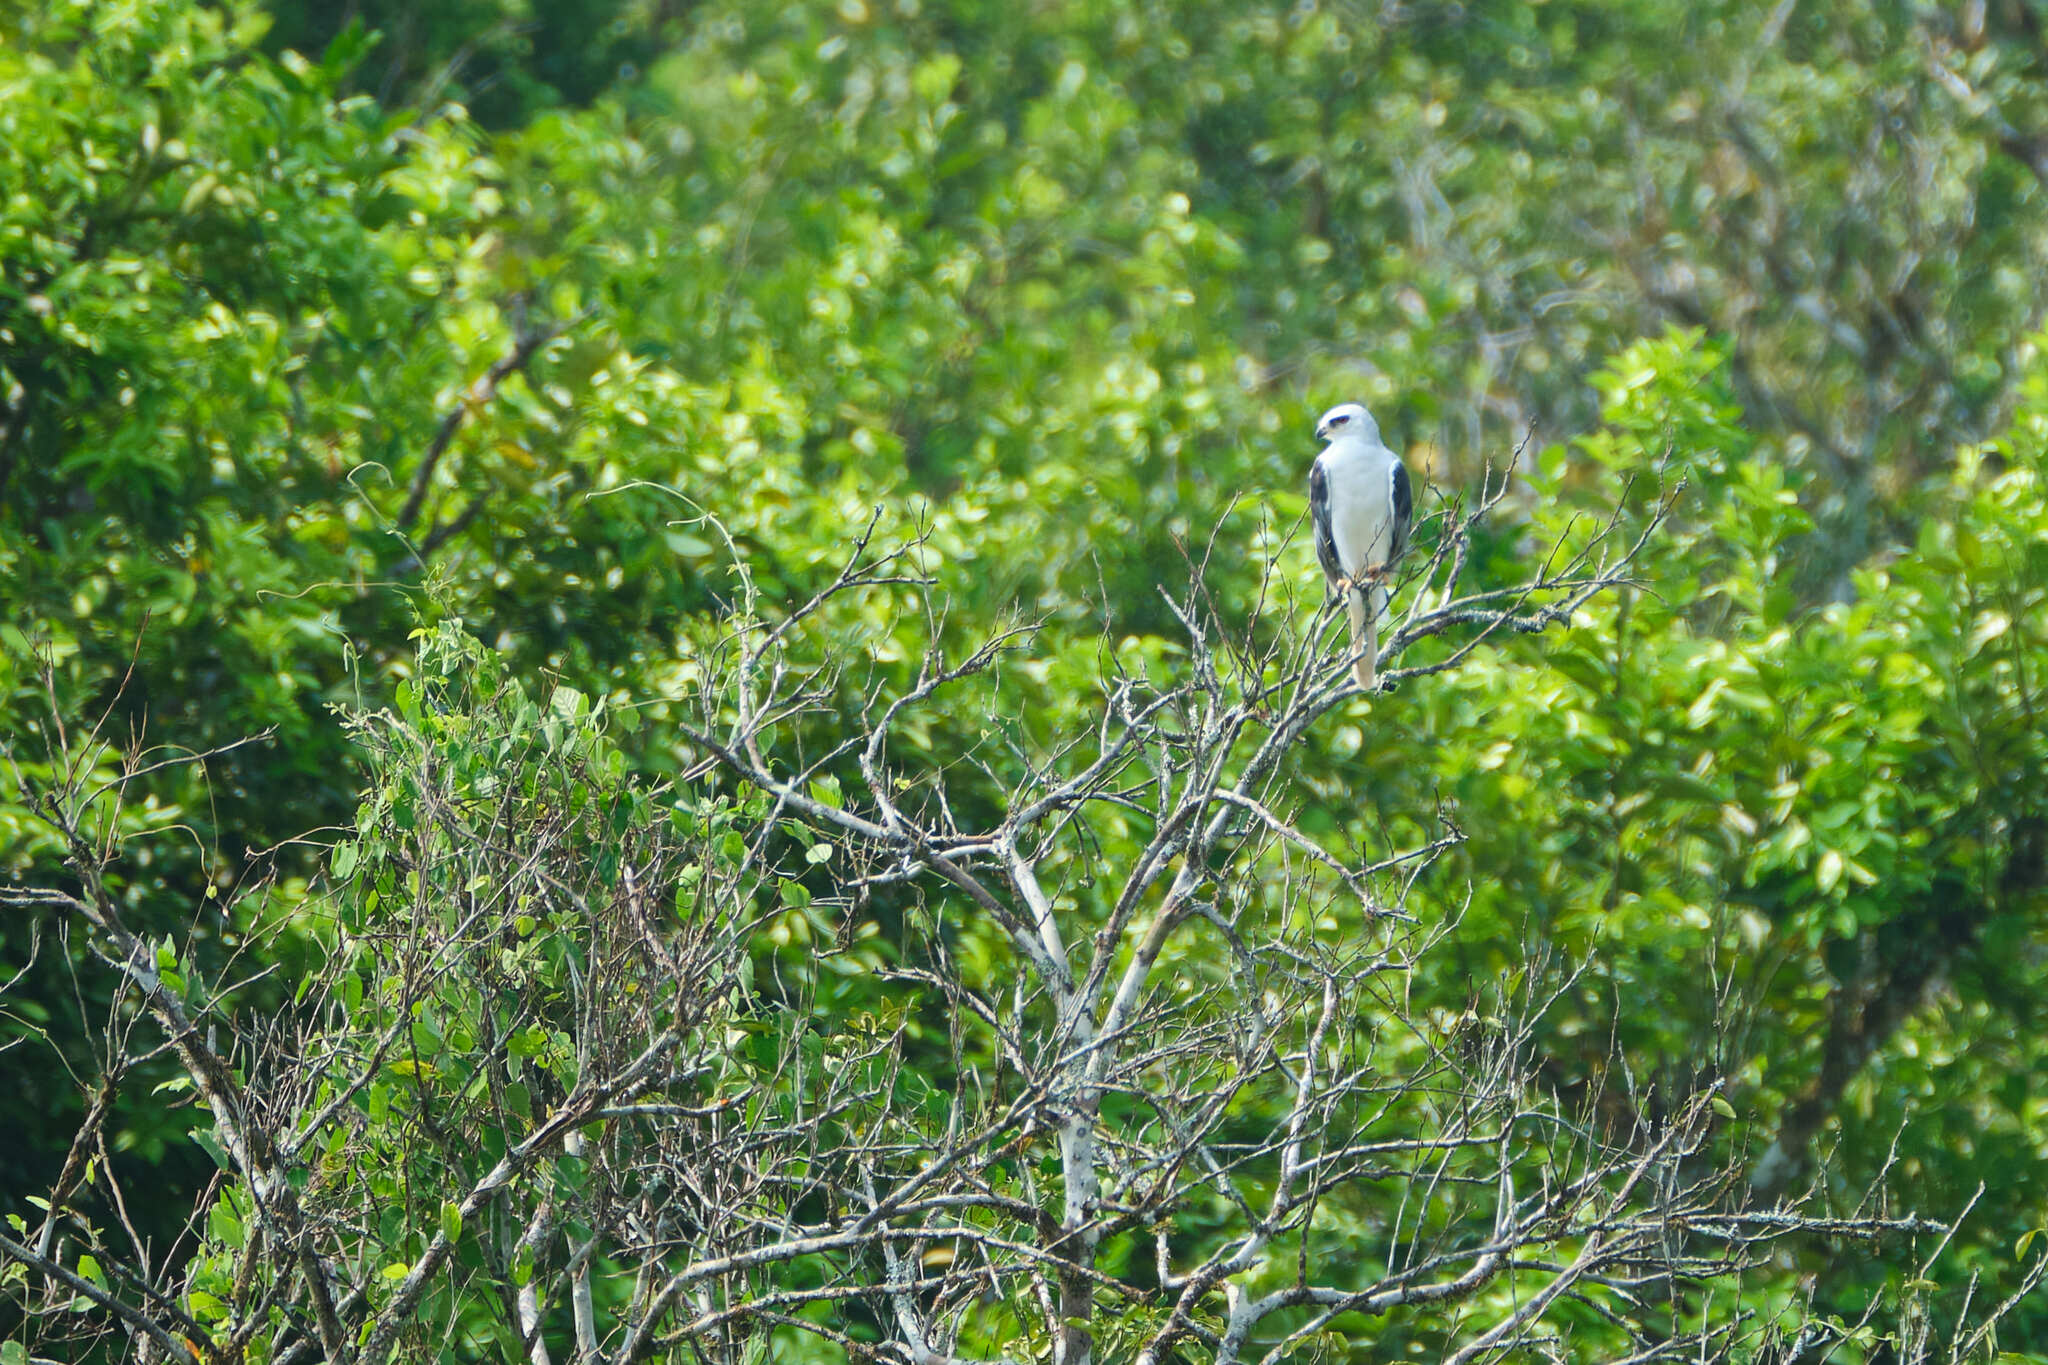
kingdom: Animalia
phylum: Chordata
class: Aves
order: Accipitriformes
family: Accipitridae
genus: Elanus
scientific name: Elanus leucurus
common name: White-tailed kite
